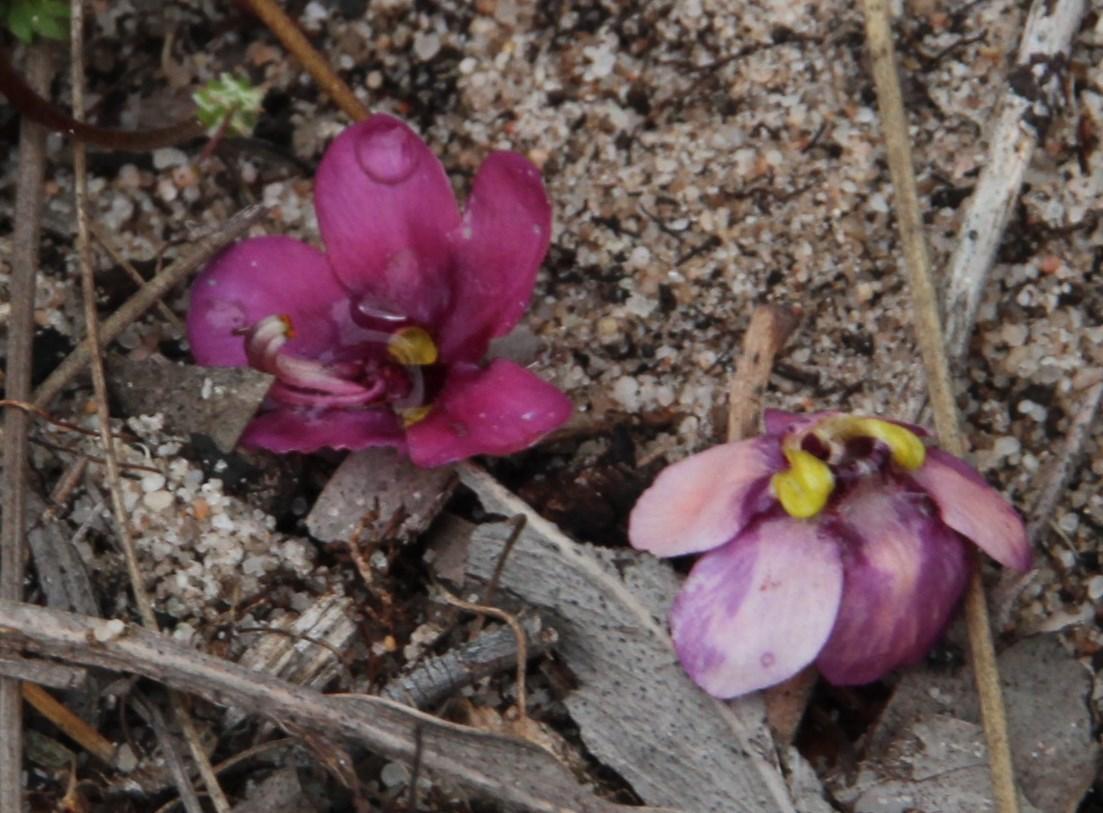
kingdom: Plantae
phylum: Tracheophyta
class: Magnoliopsida
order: Lamiales
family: Scrophulariaceae
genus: Diascia
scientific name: Diascia capensis
